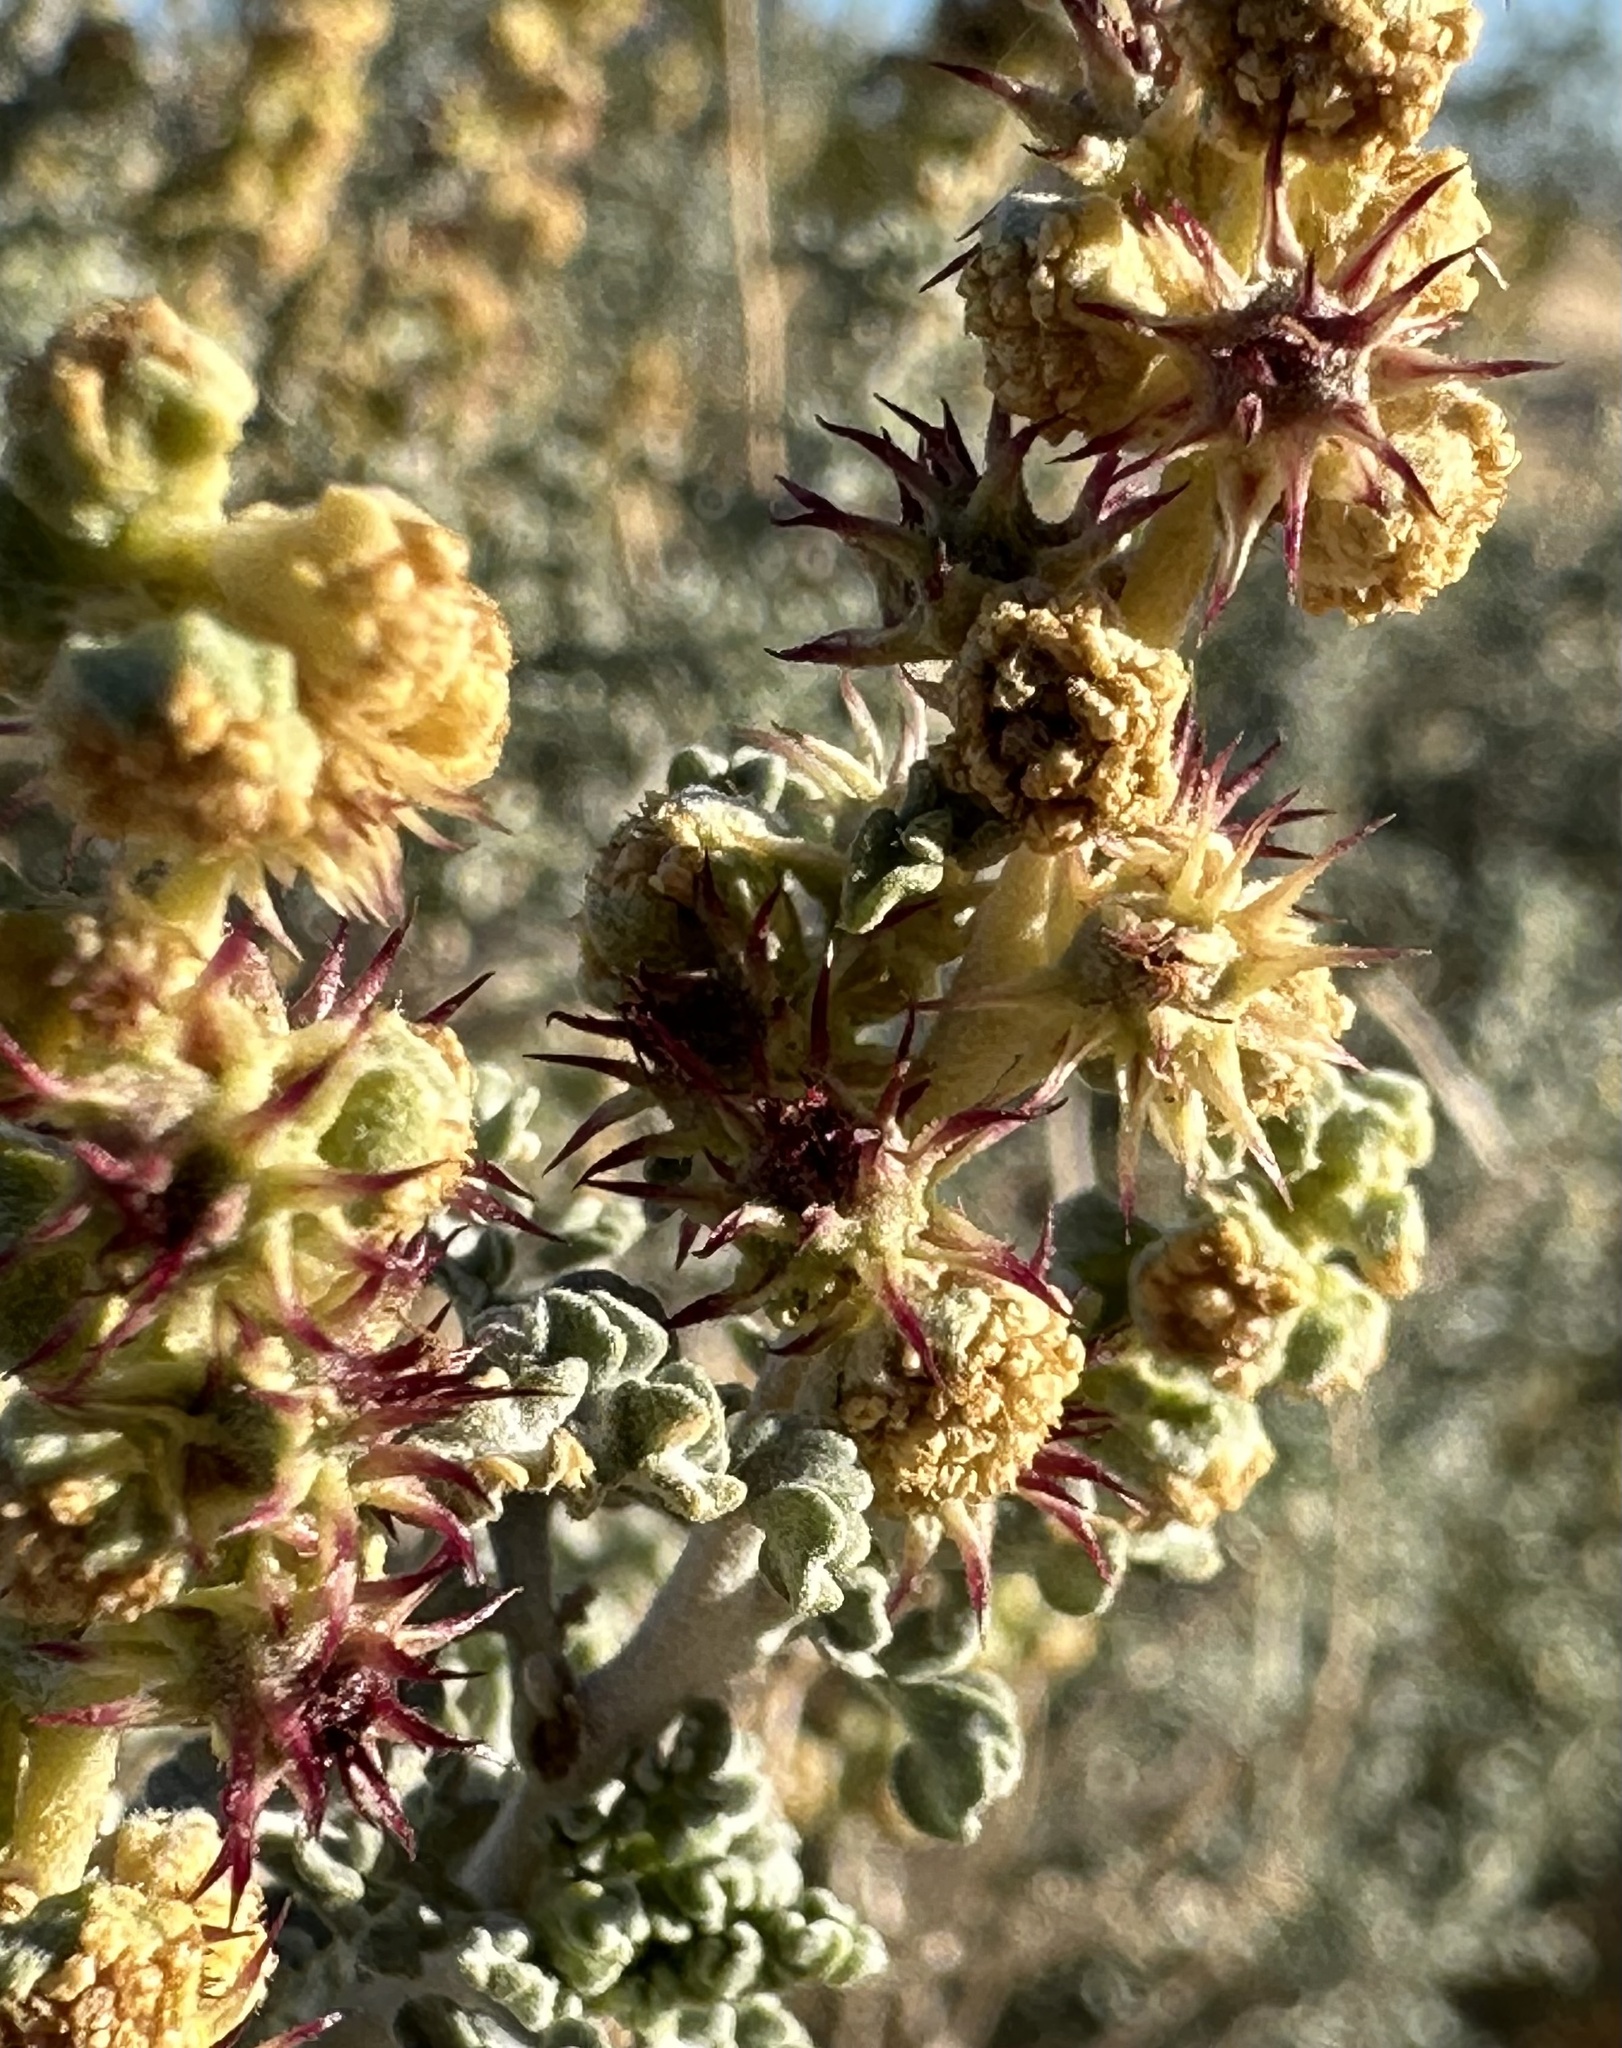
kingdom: Plantae
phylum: Tracheophyta
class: Magnoliopsida
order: Asterales
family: Asteraceae
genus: Ambrosia
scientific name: Ambrosia dumosa
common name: Bur-sage
